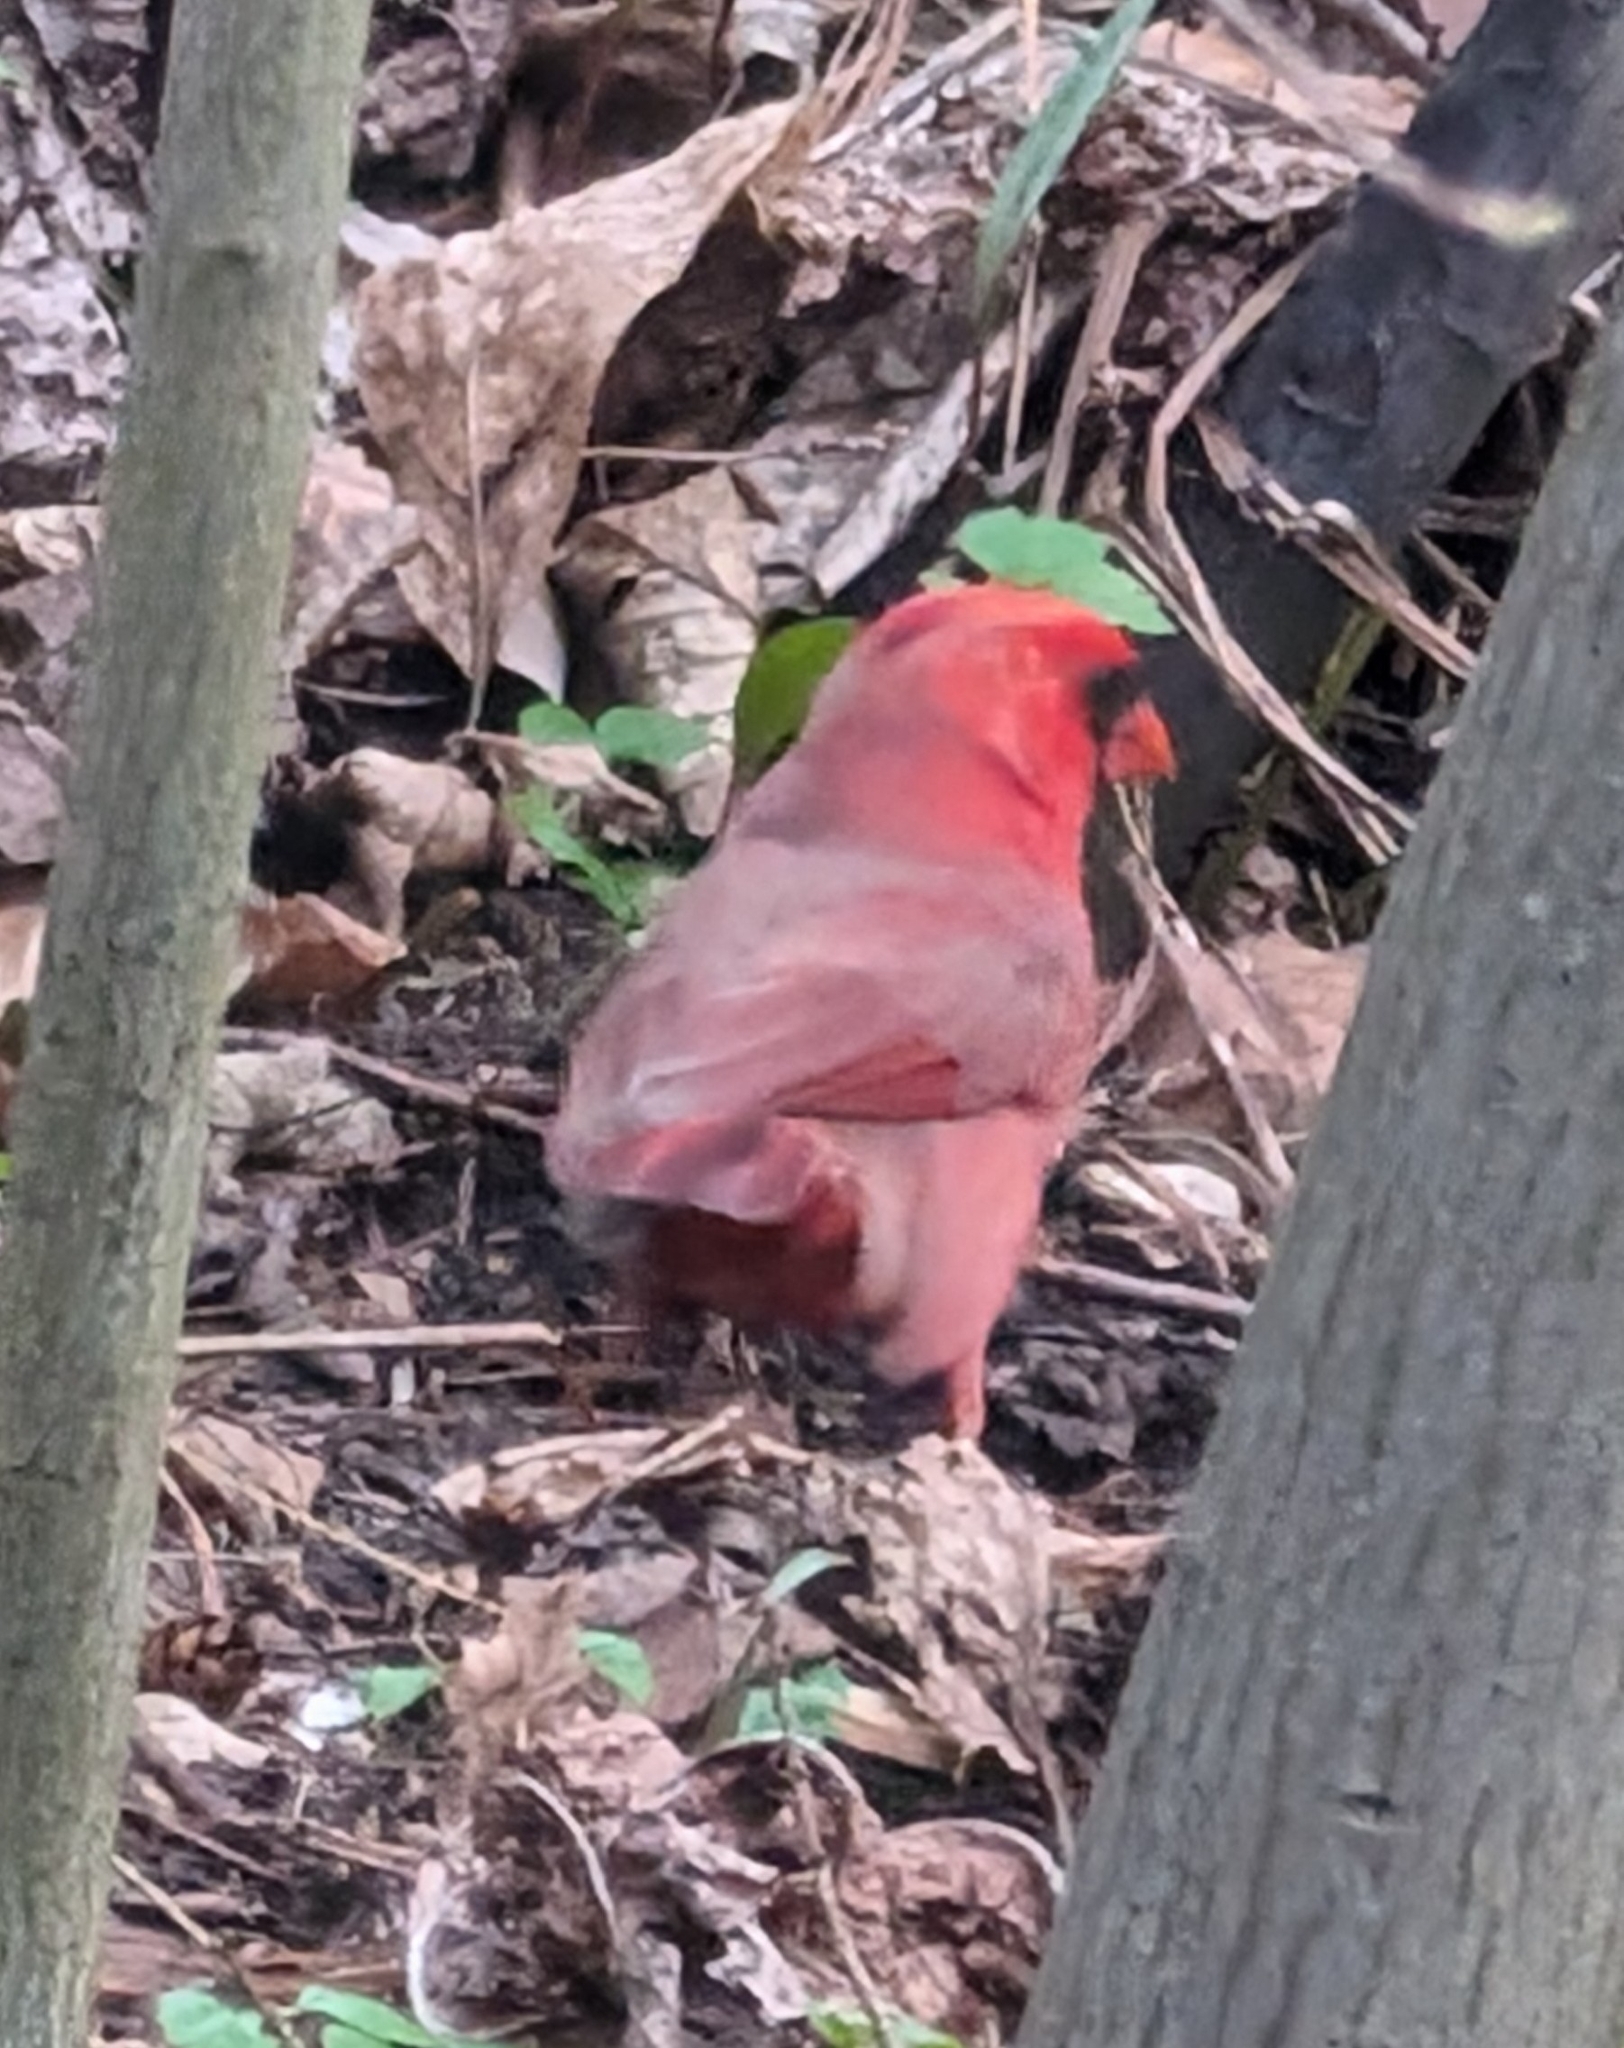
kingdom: Animalia
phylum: Chordata
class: Aves
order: Passeriformes
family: Cardinalidae
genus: Cardinalis
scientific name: Cardinalis cardinalis
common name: Northern cardinal
